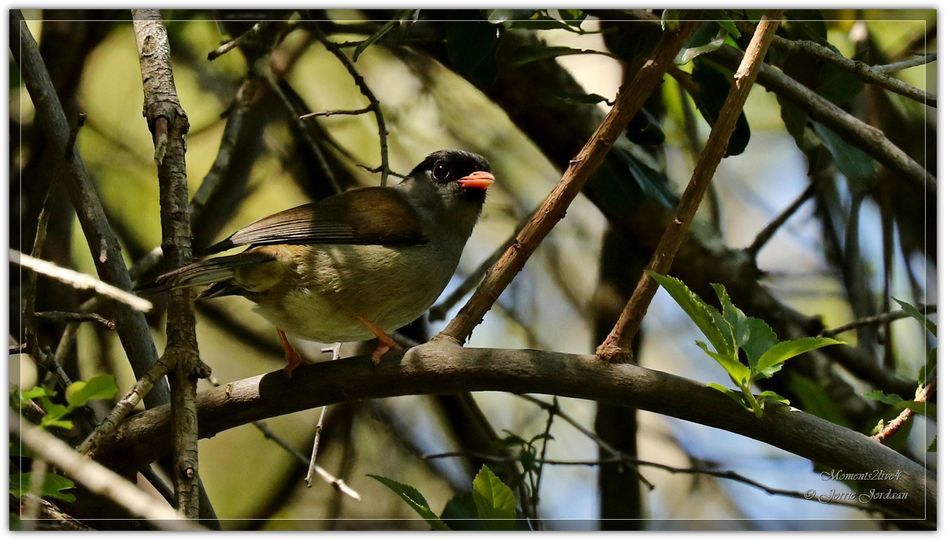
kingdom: Animalia
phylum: Chordata
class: Aves
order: Passeriformes
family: Sylviidae
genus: Lioptilus
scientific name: Lioptilus nigricapillus
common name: Bush blackcap
